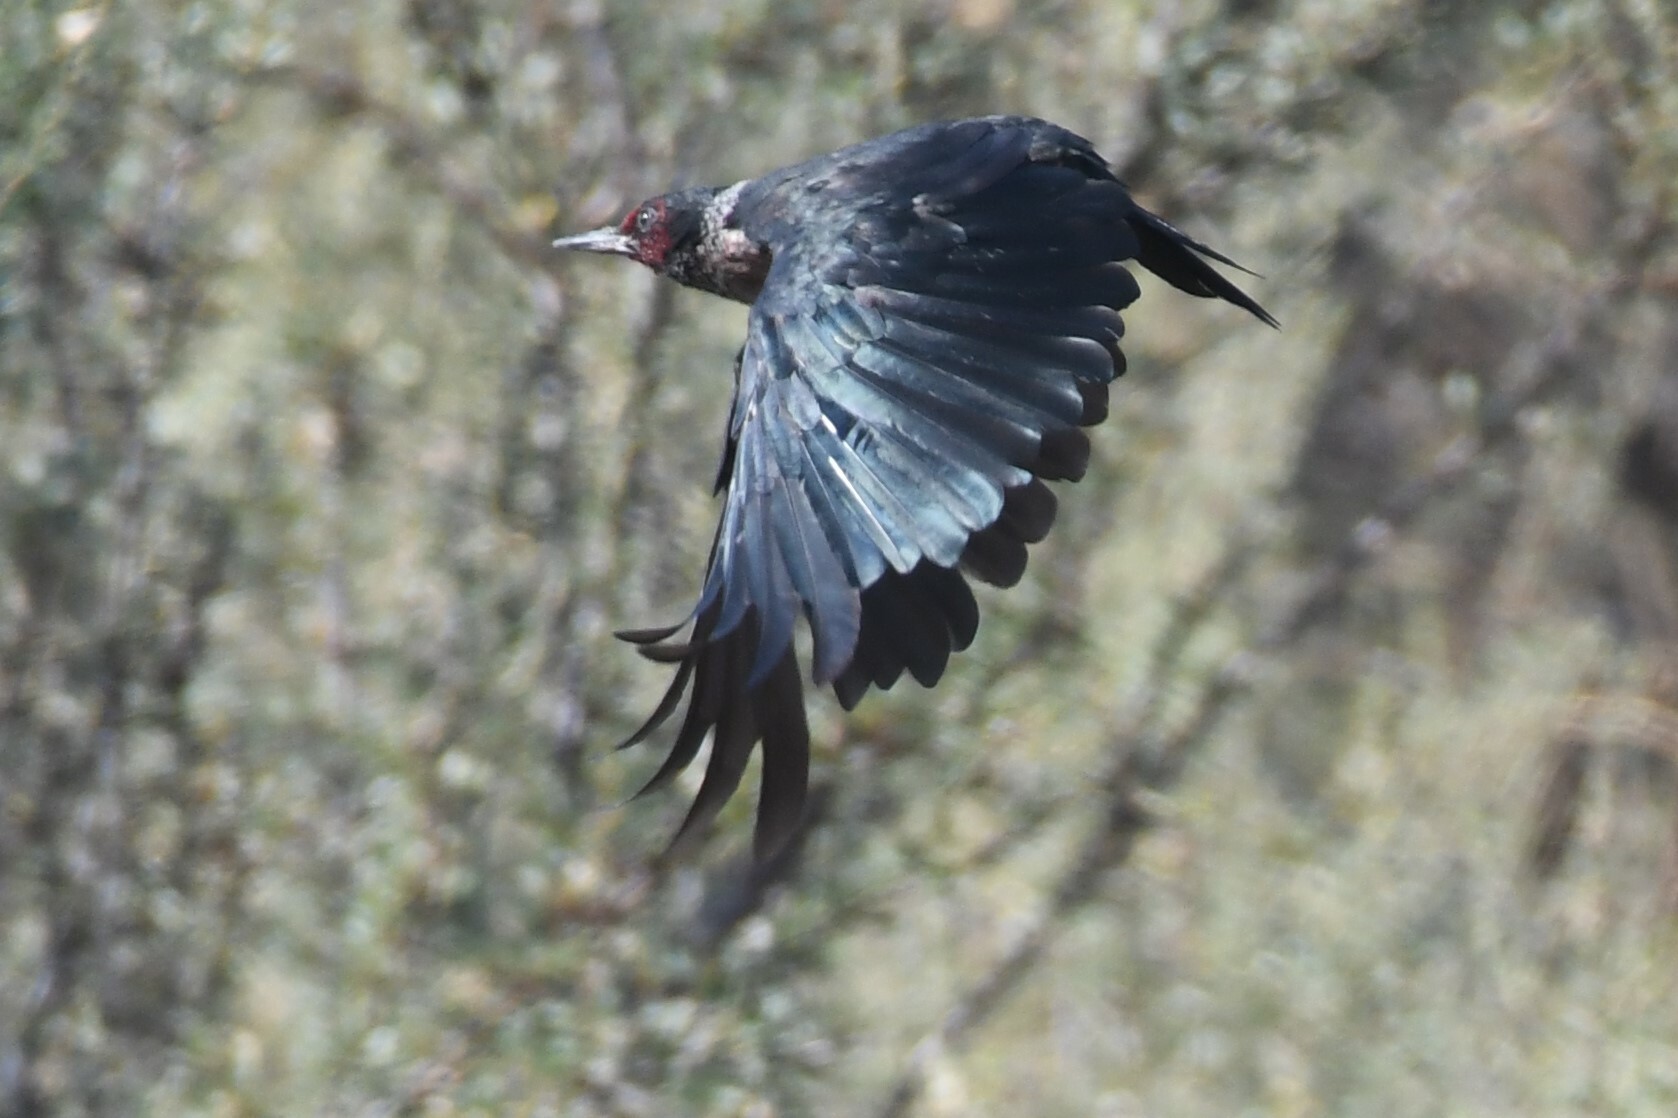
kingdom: Animalia
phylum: Chordata
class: Aves
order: Piciformes
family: Picidae
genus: Melanerpes
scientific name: Melanerpes lewis
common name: Lewis's woodpecker
